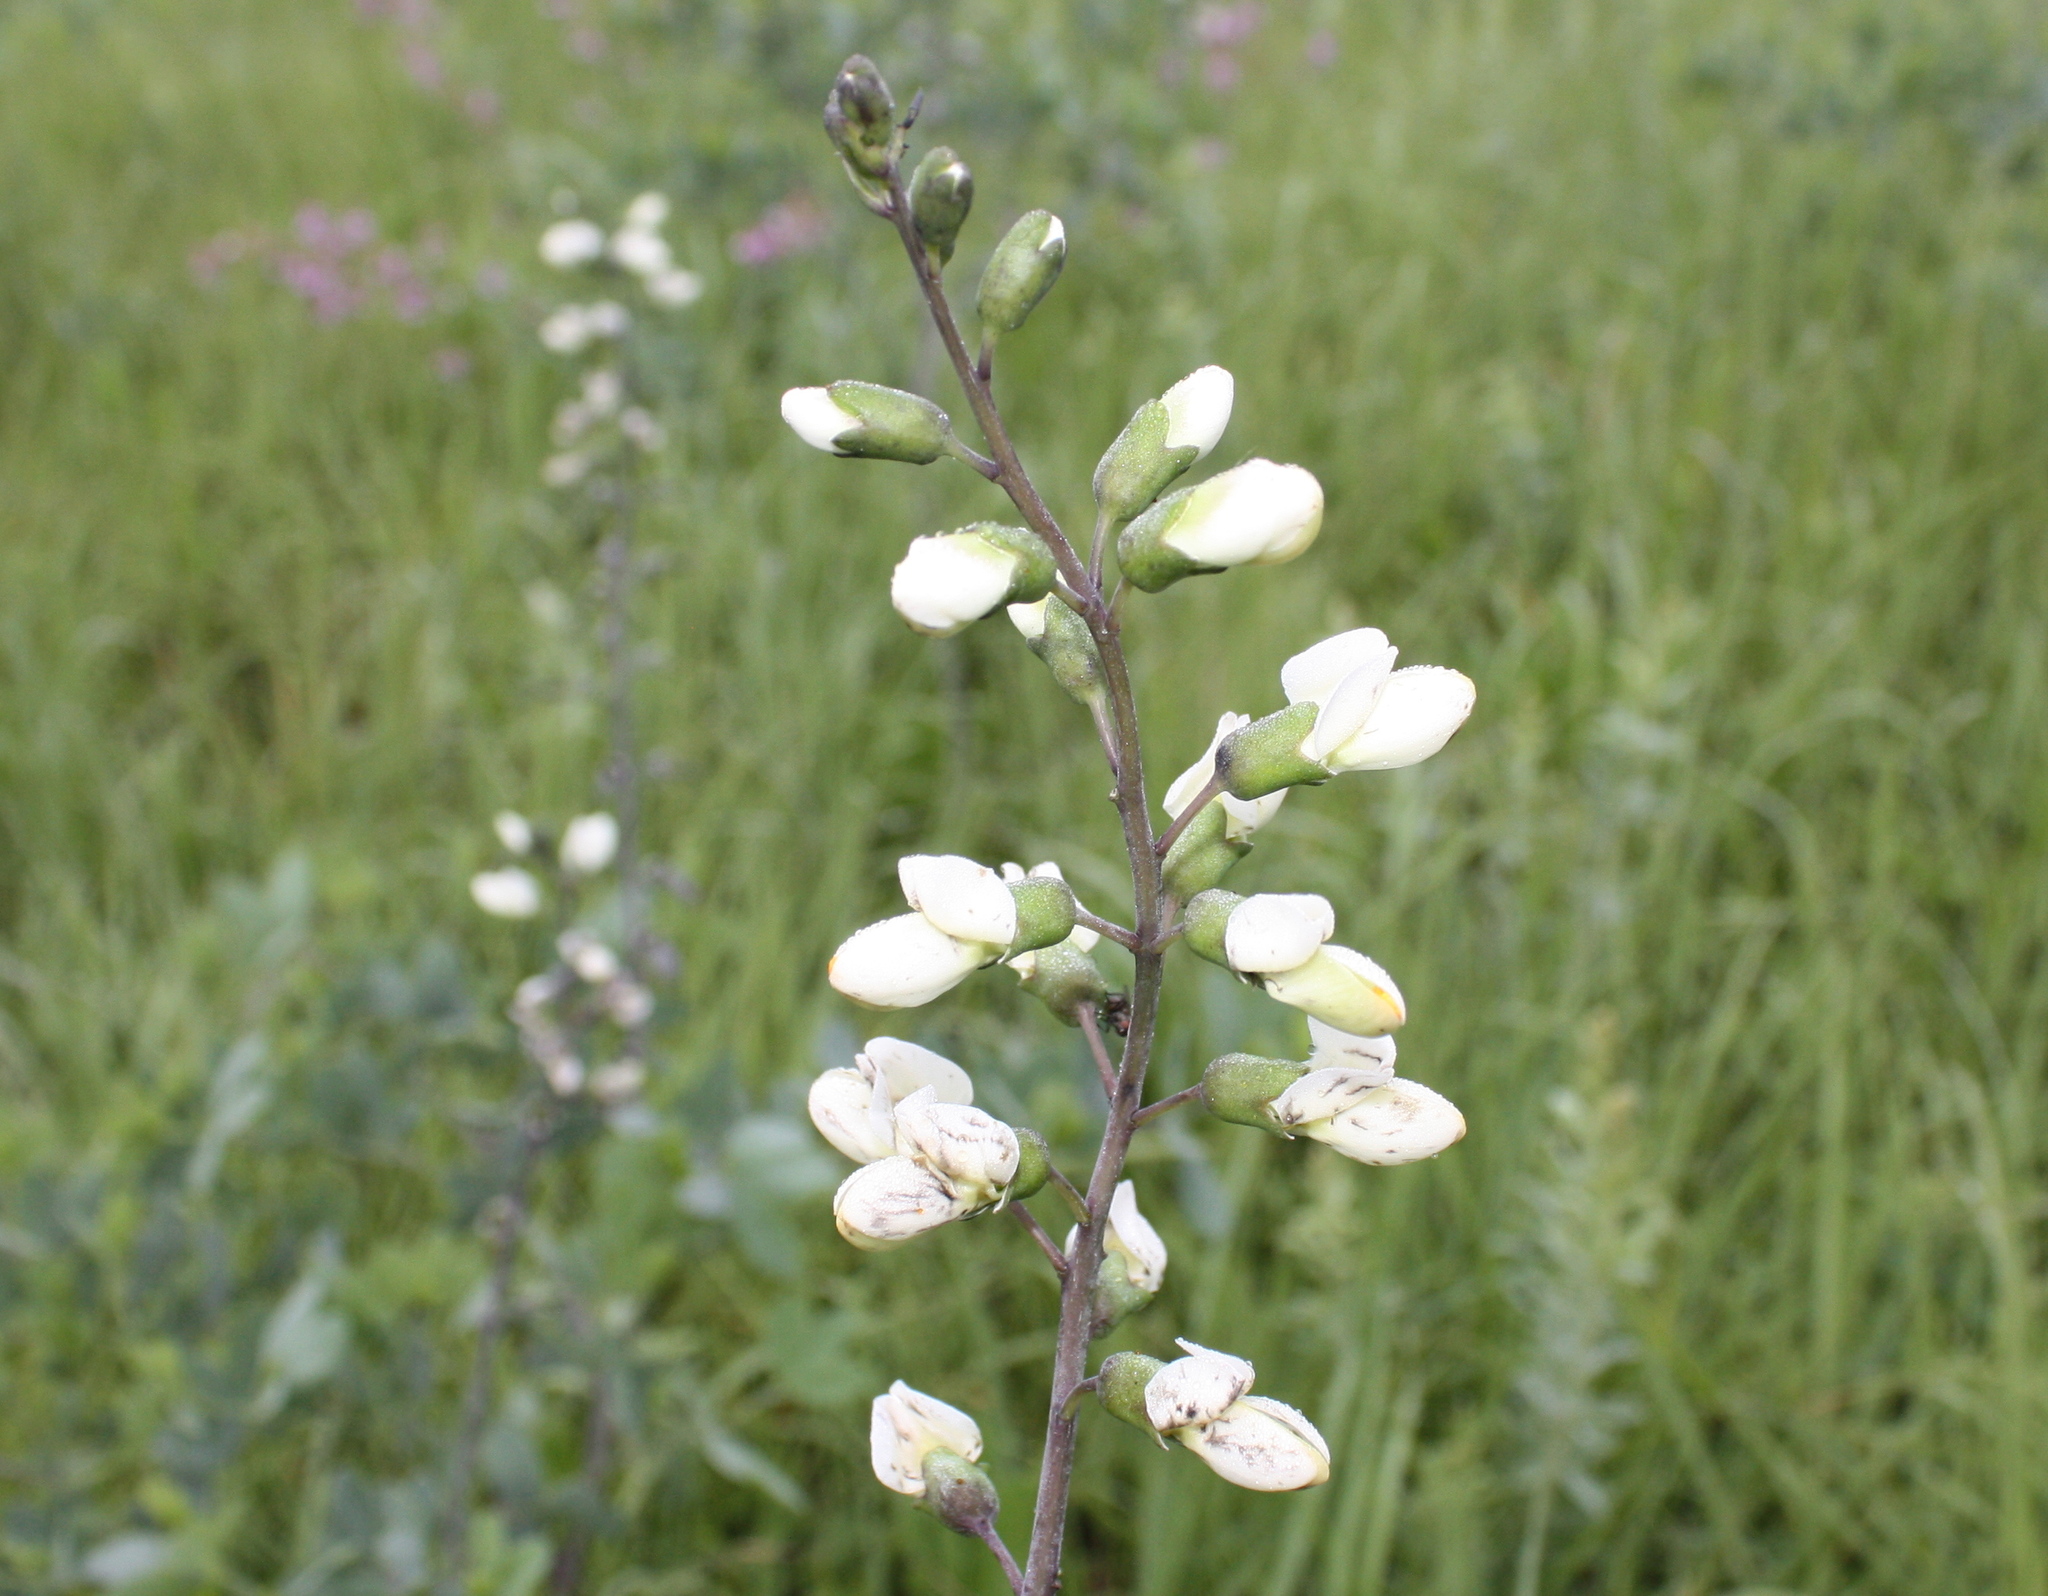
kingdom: Plantae
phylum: Tracheophyta
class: Magnoliopsida
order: Fabales
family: Fabaceae
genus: Baptisia
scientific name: Baptisia alba
